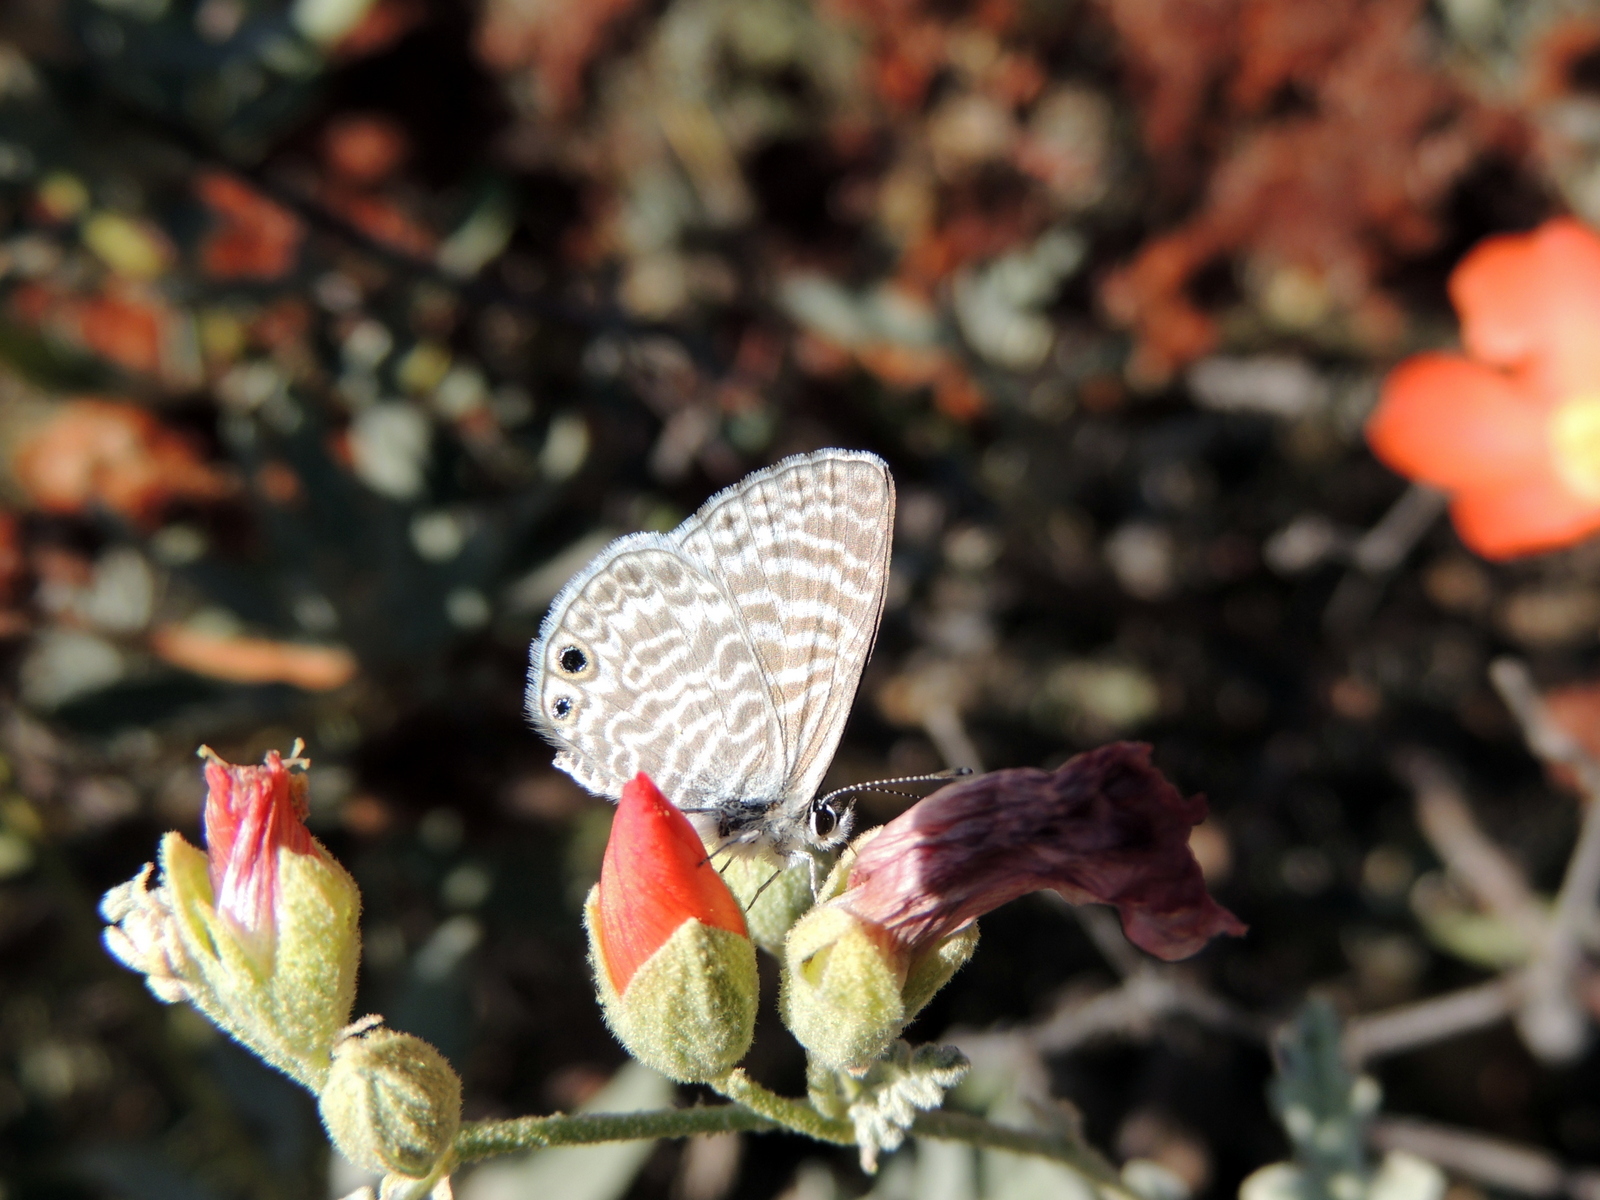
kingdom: Animalia
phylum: Arthropoda
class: Insecta
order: Lepidoptera
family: Lycaenidae
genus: Leptotes
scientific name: Leptotes marina
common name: Marine blue
